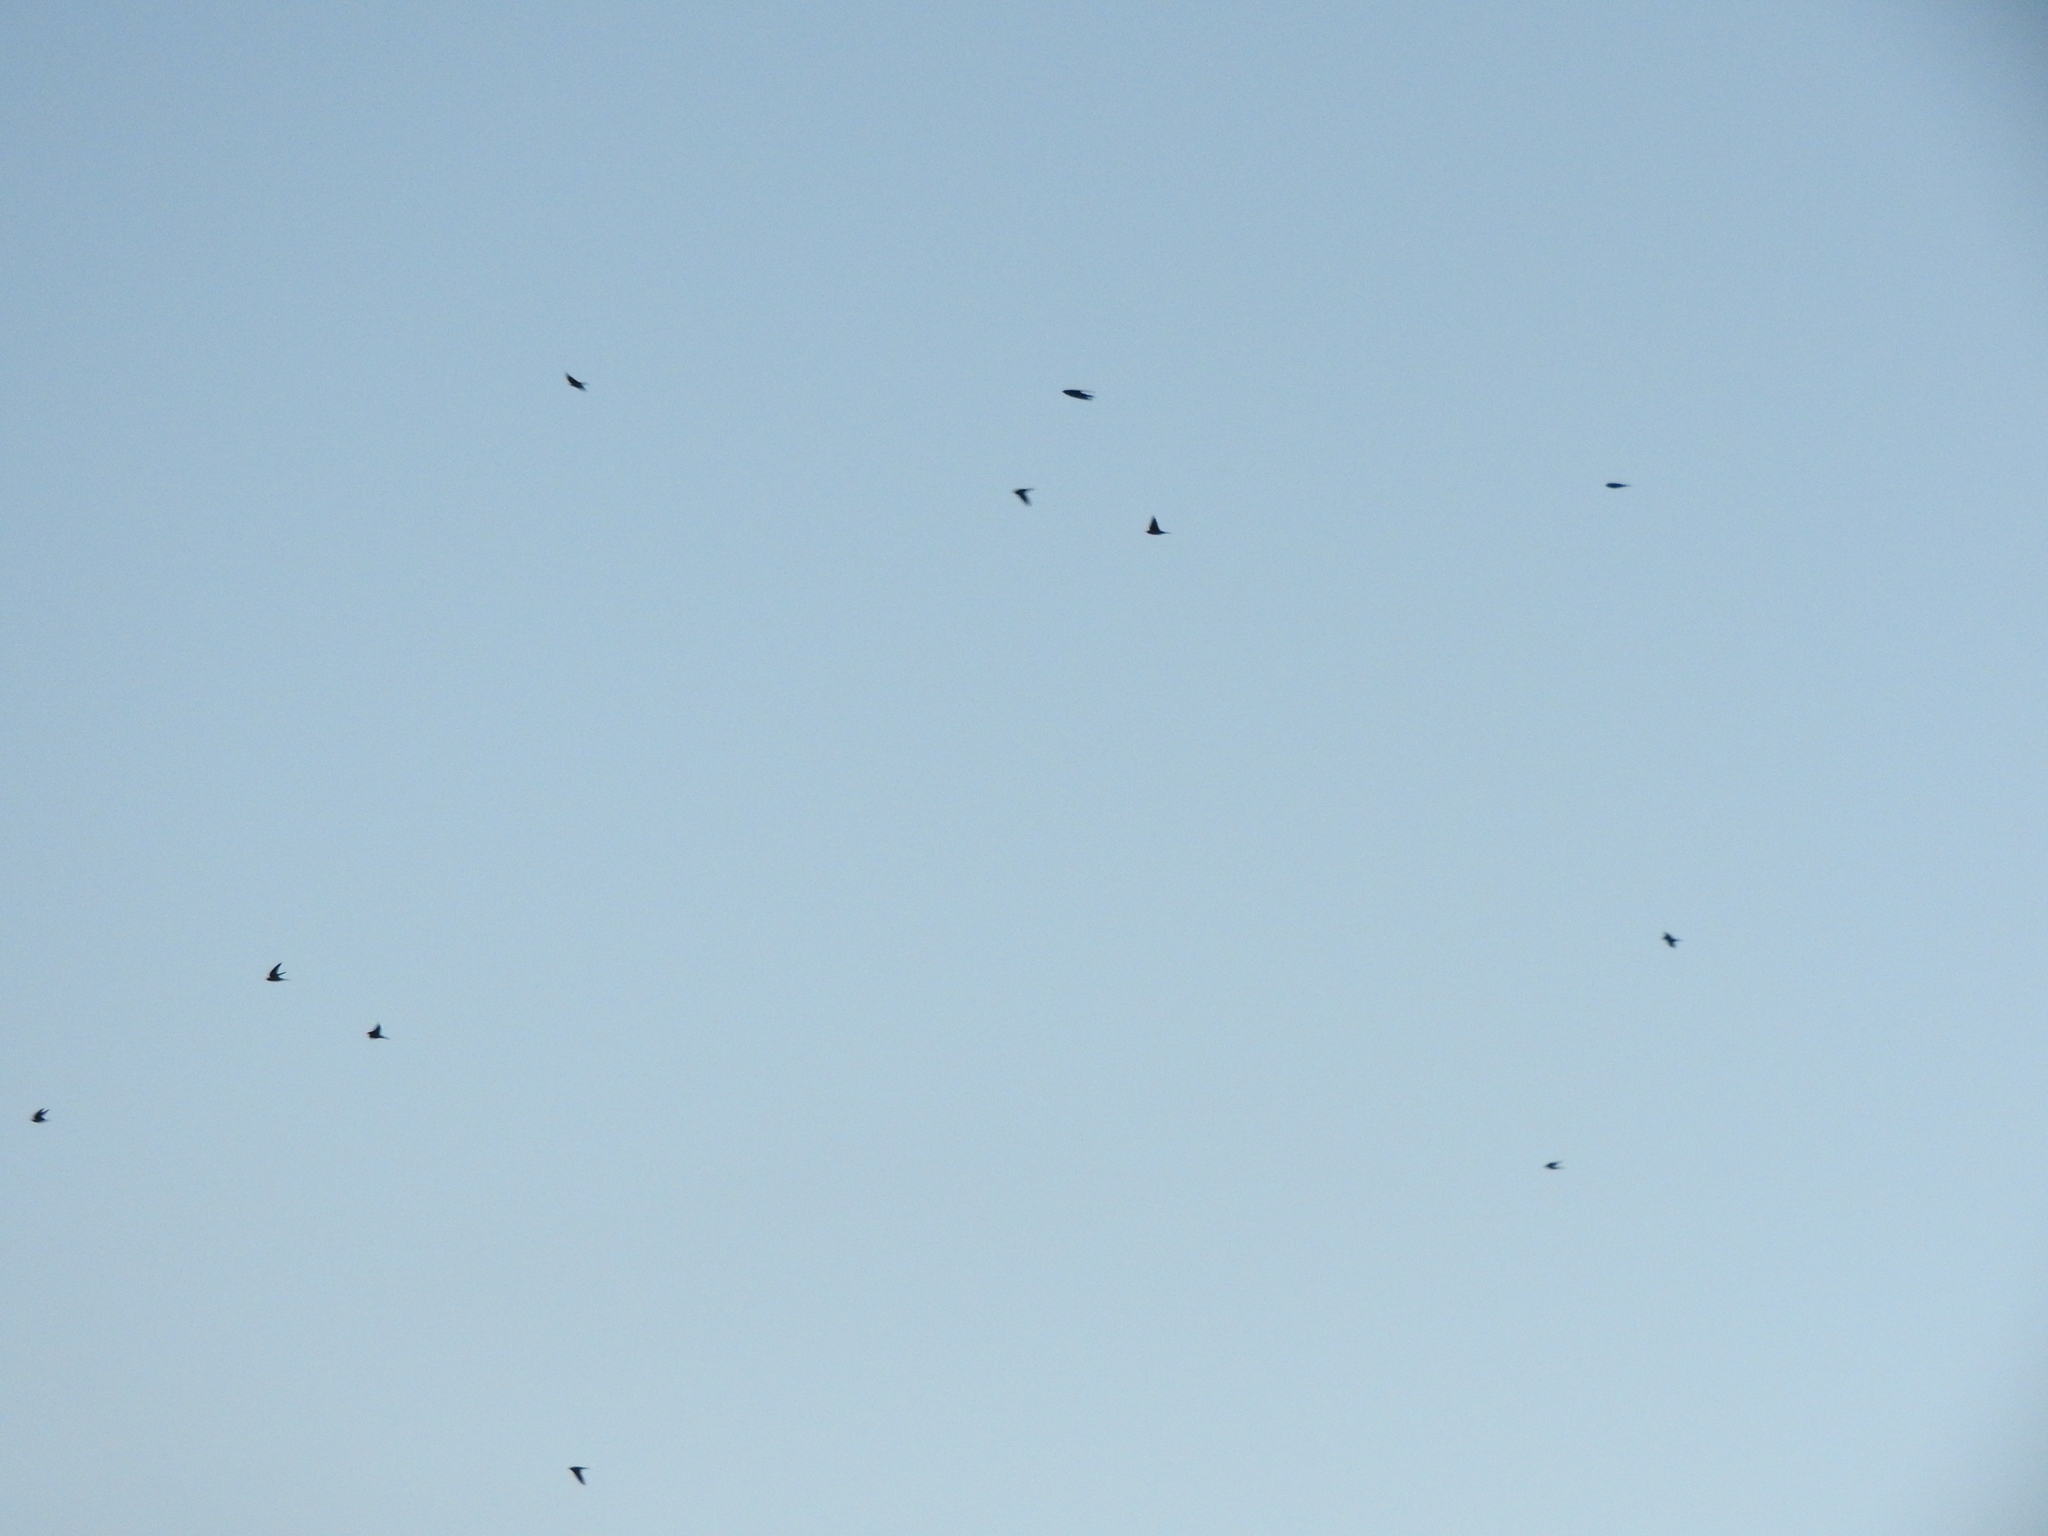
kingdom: Animalia
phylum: Chordata
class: Aves
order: Passeriformes
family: Hirundinidae
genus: Hirundo
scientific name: Hirundo rustica
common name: Barn swallow
